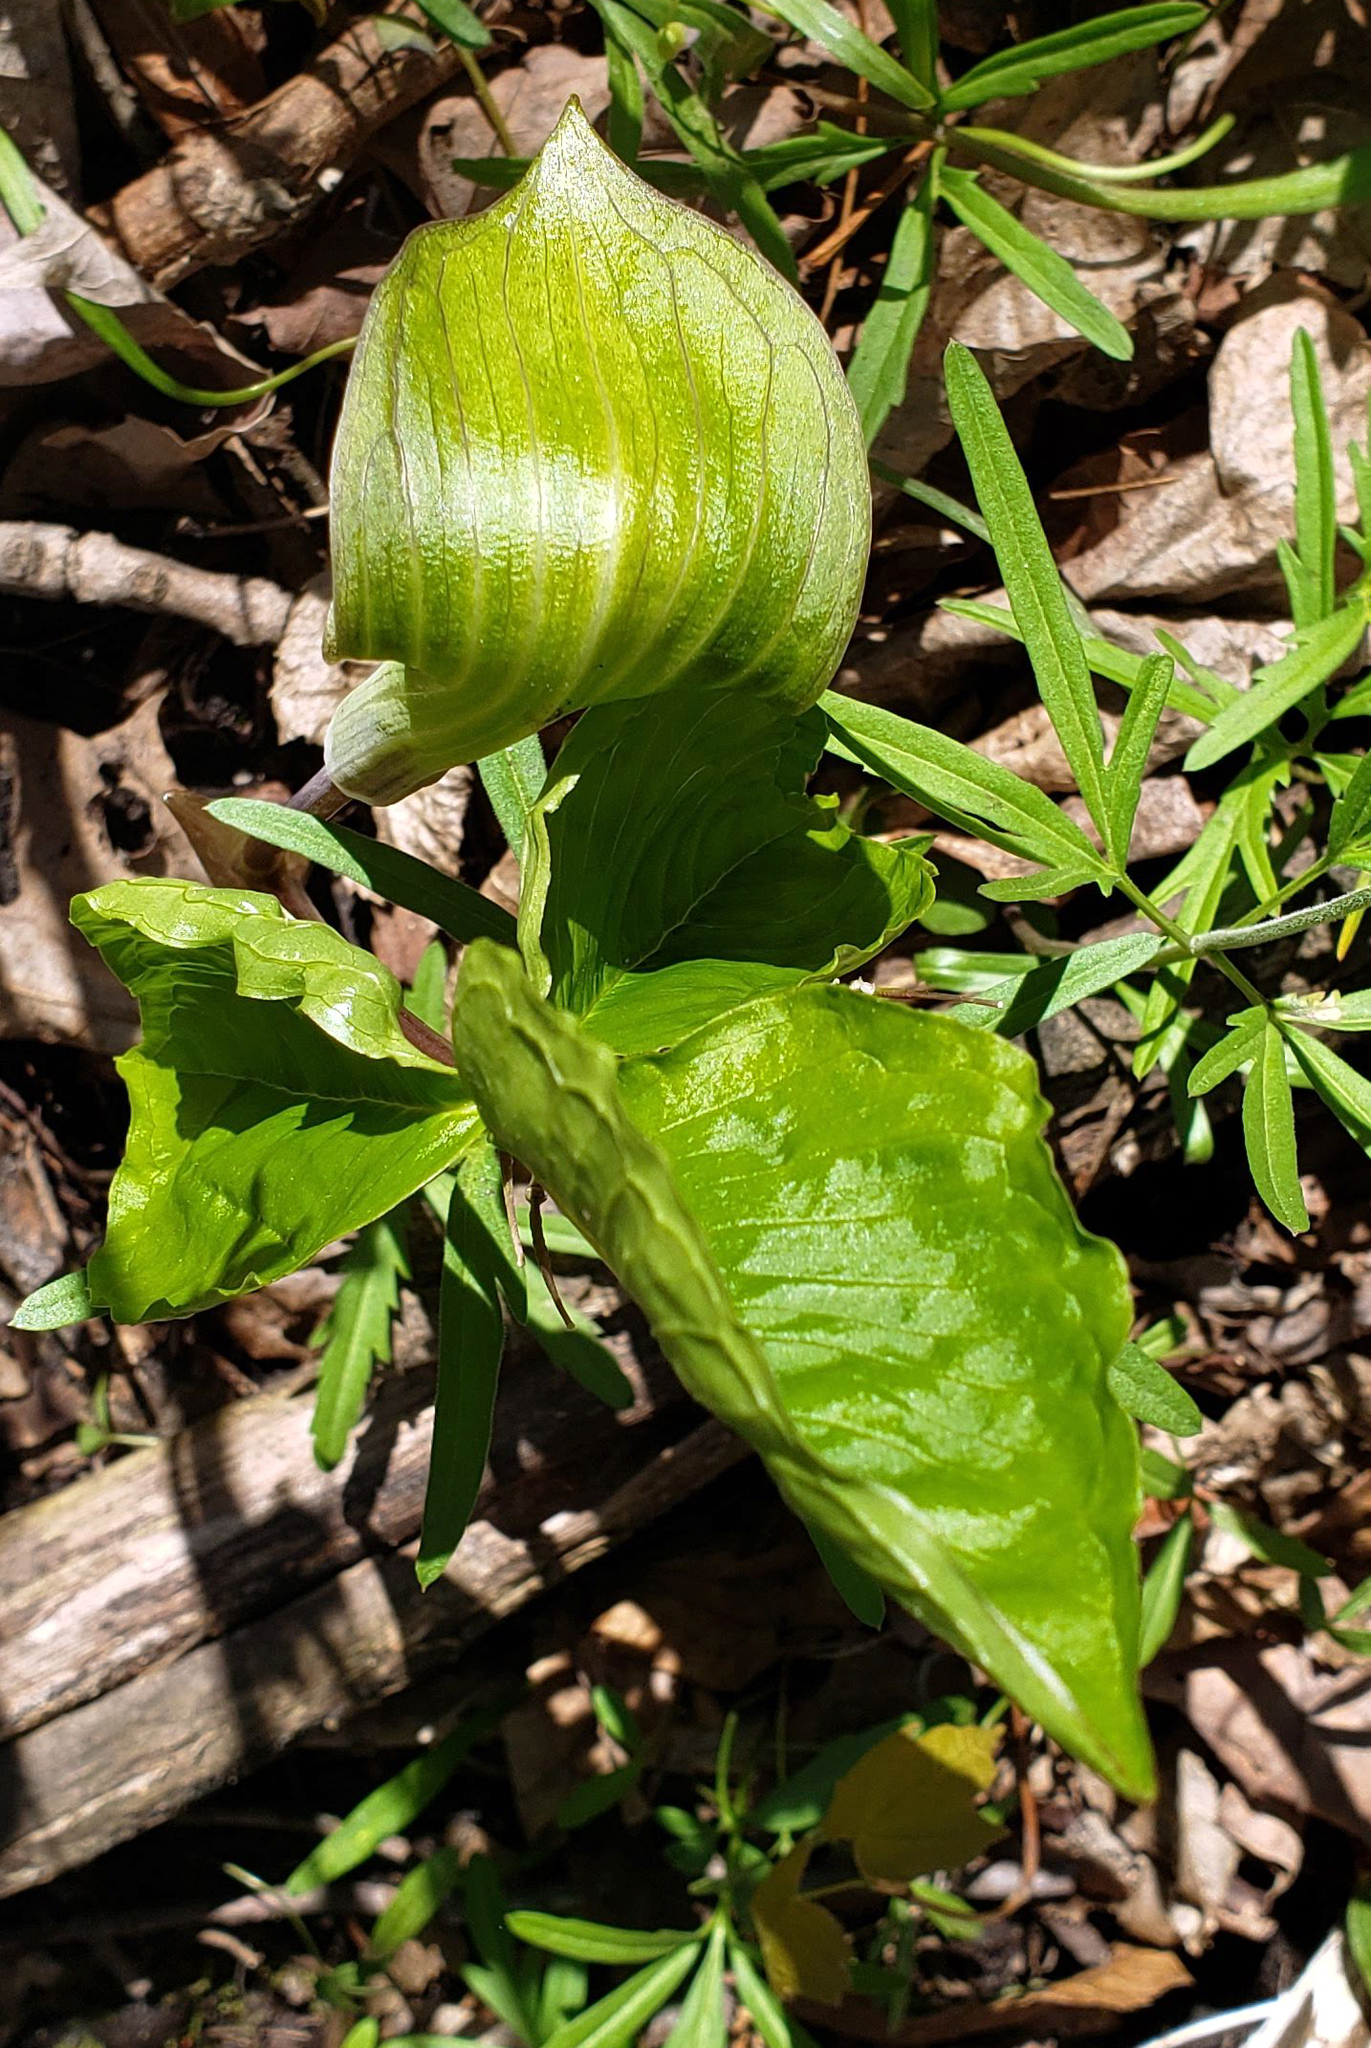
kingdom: Plantae
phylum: Tracheophyta
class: Liliopsida
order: Alismatales
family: Araceae
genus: Arisaema
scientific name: Arisaema triphyllum
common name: Jack-in-the-pulpit
